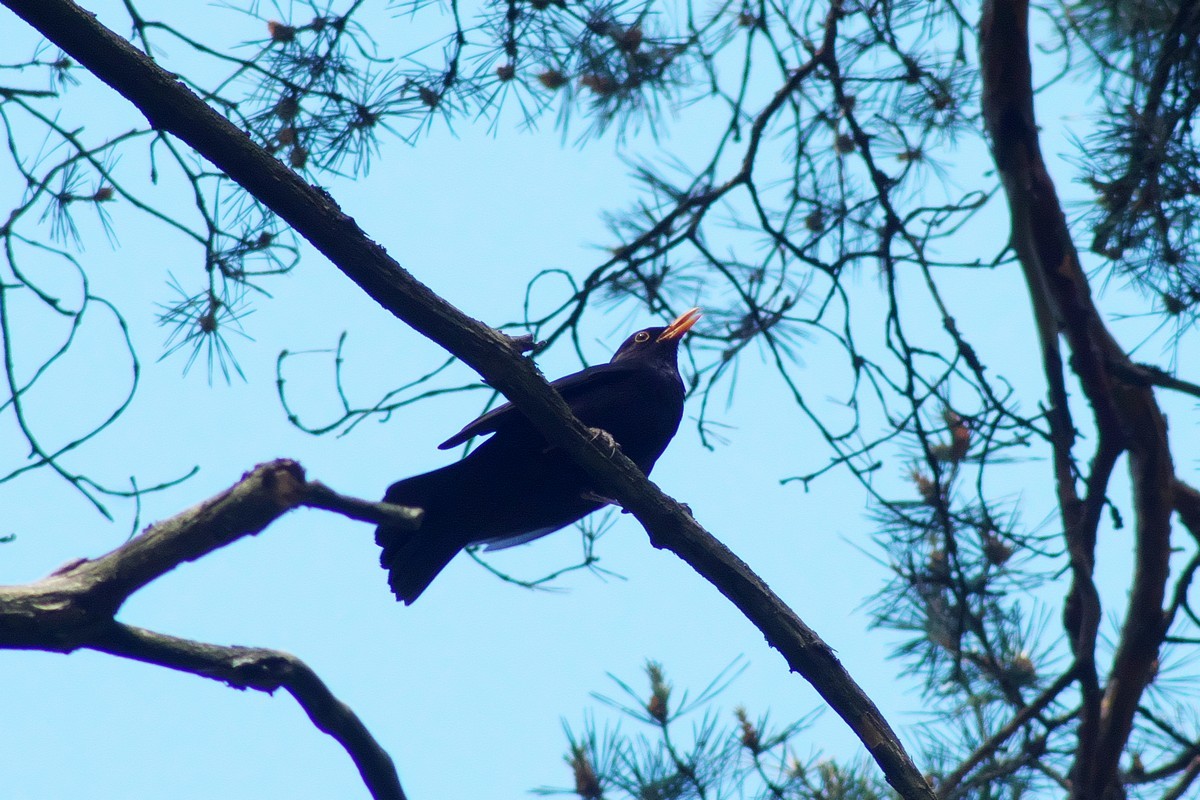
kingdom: Animalia
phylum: Chordata
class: Aves
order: Passeriformes
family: Turdidae
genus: Turdus
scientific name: Turdus merula
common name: Common blackbird
